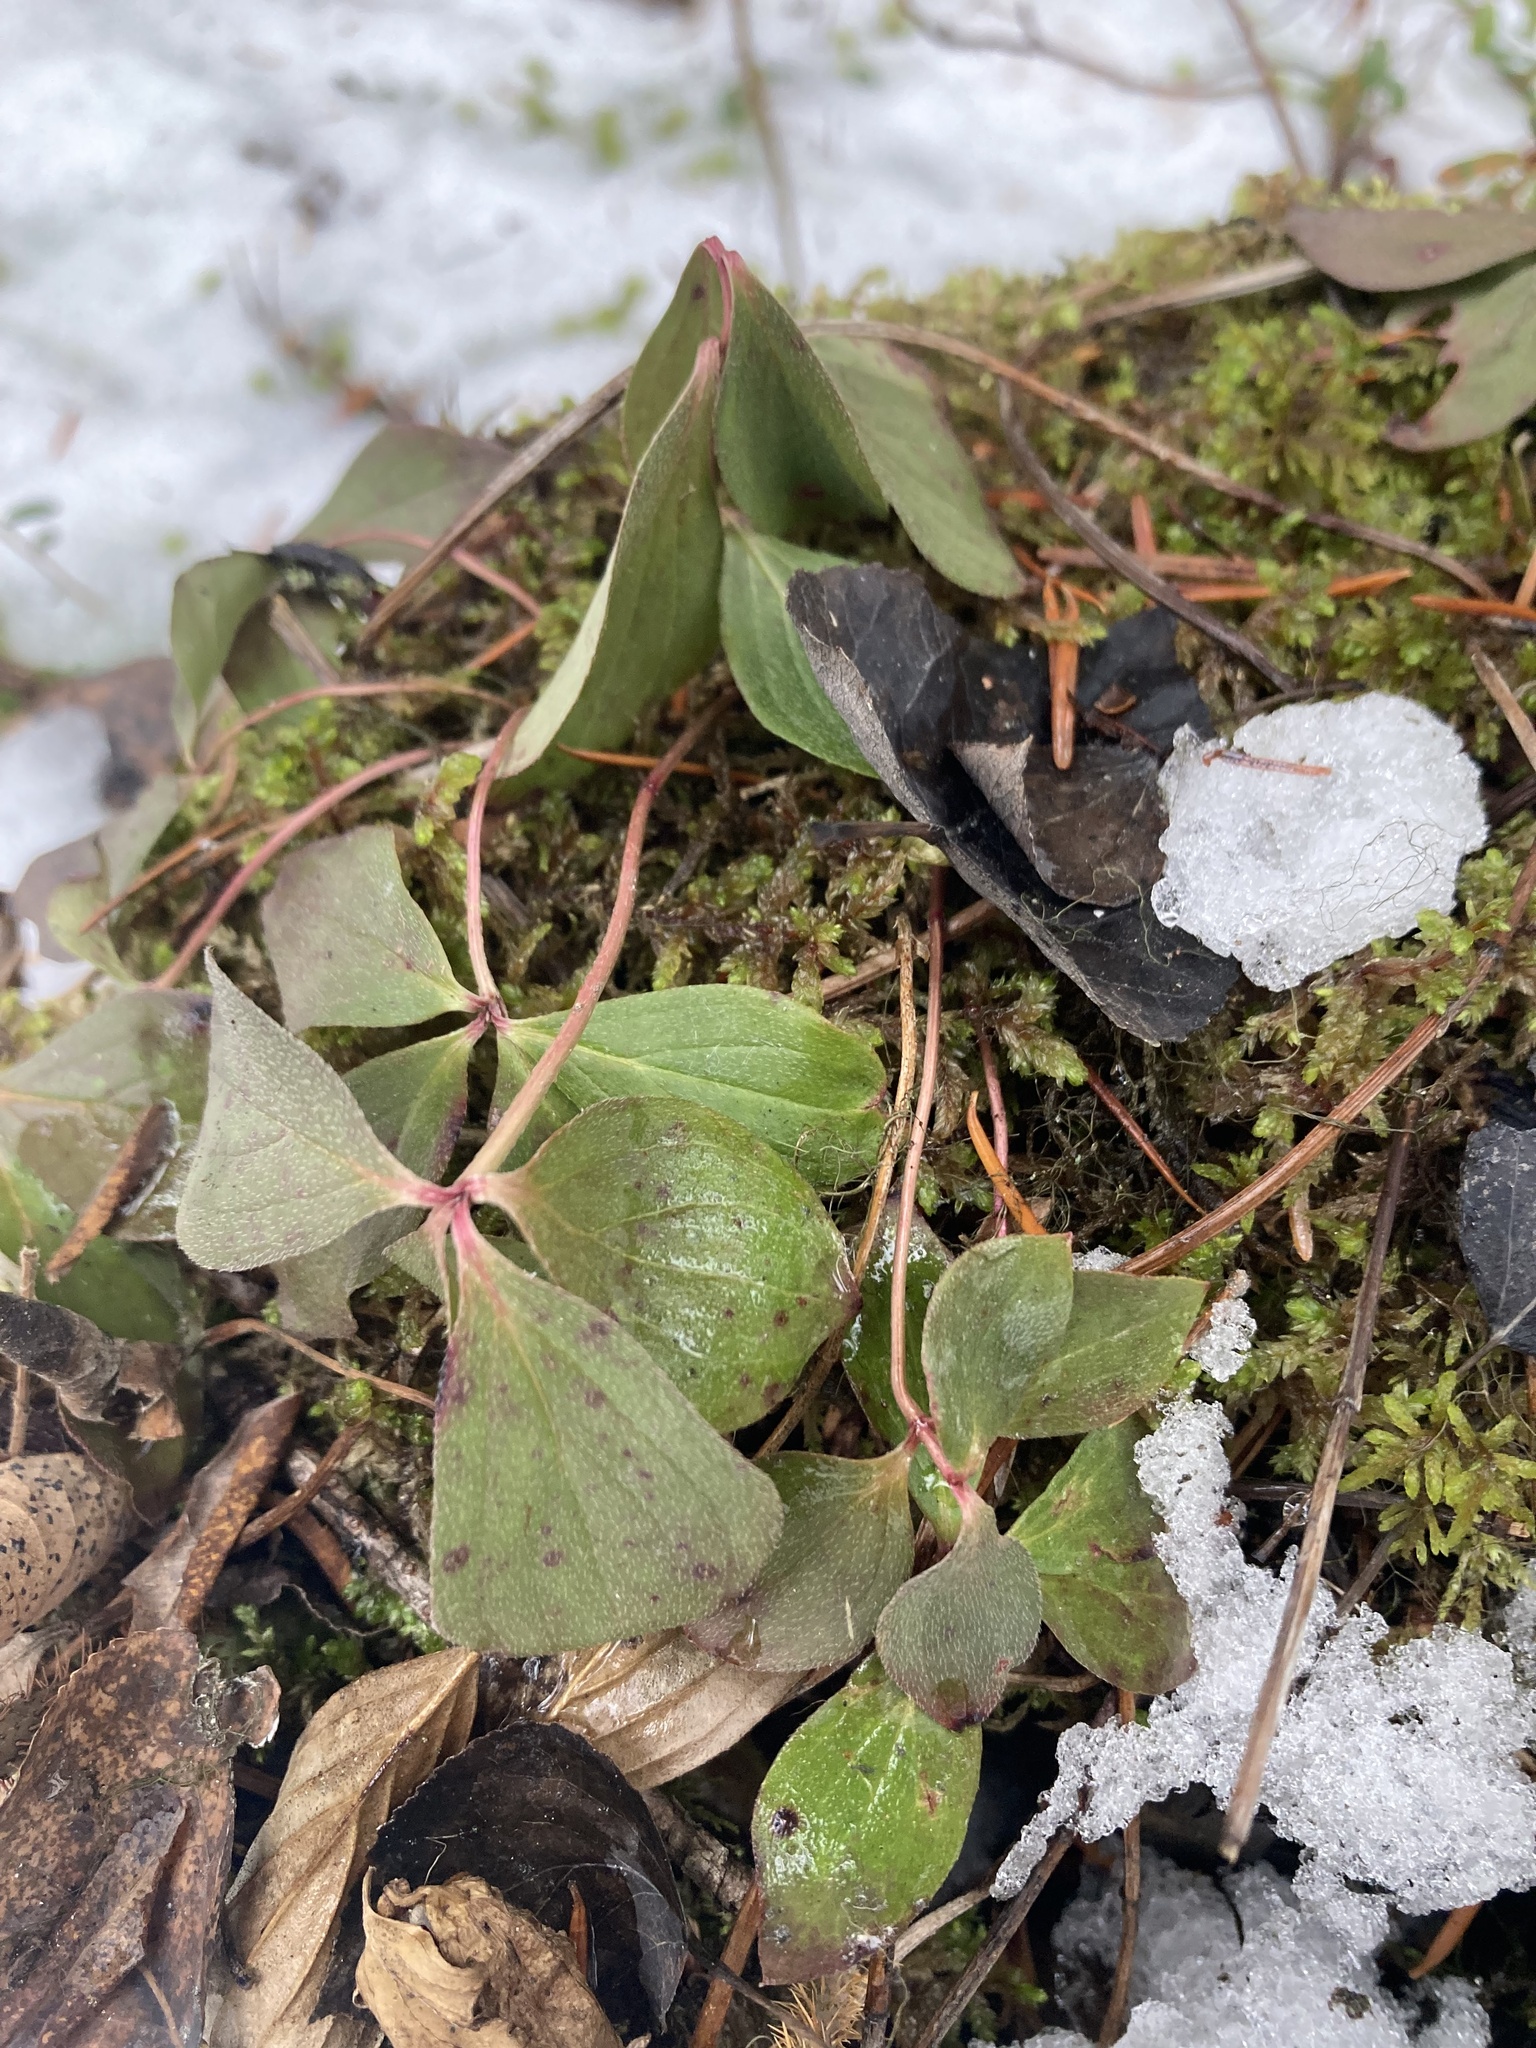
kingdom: Plantae
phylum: Tracheophyta
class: Magnoliopsida
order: Cornales
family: Cornaceae
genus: Cornus
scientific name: Cornus canadensis
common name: Creeping dogwood
